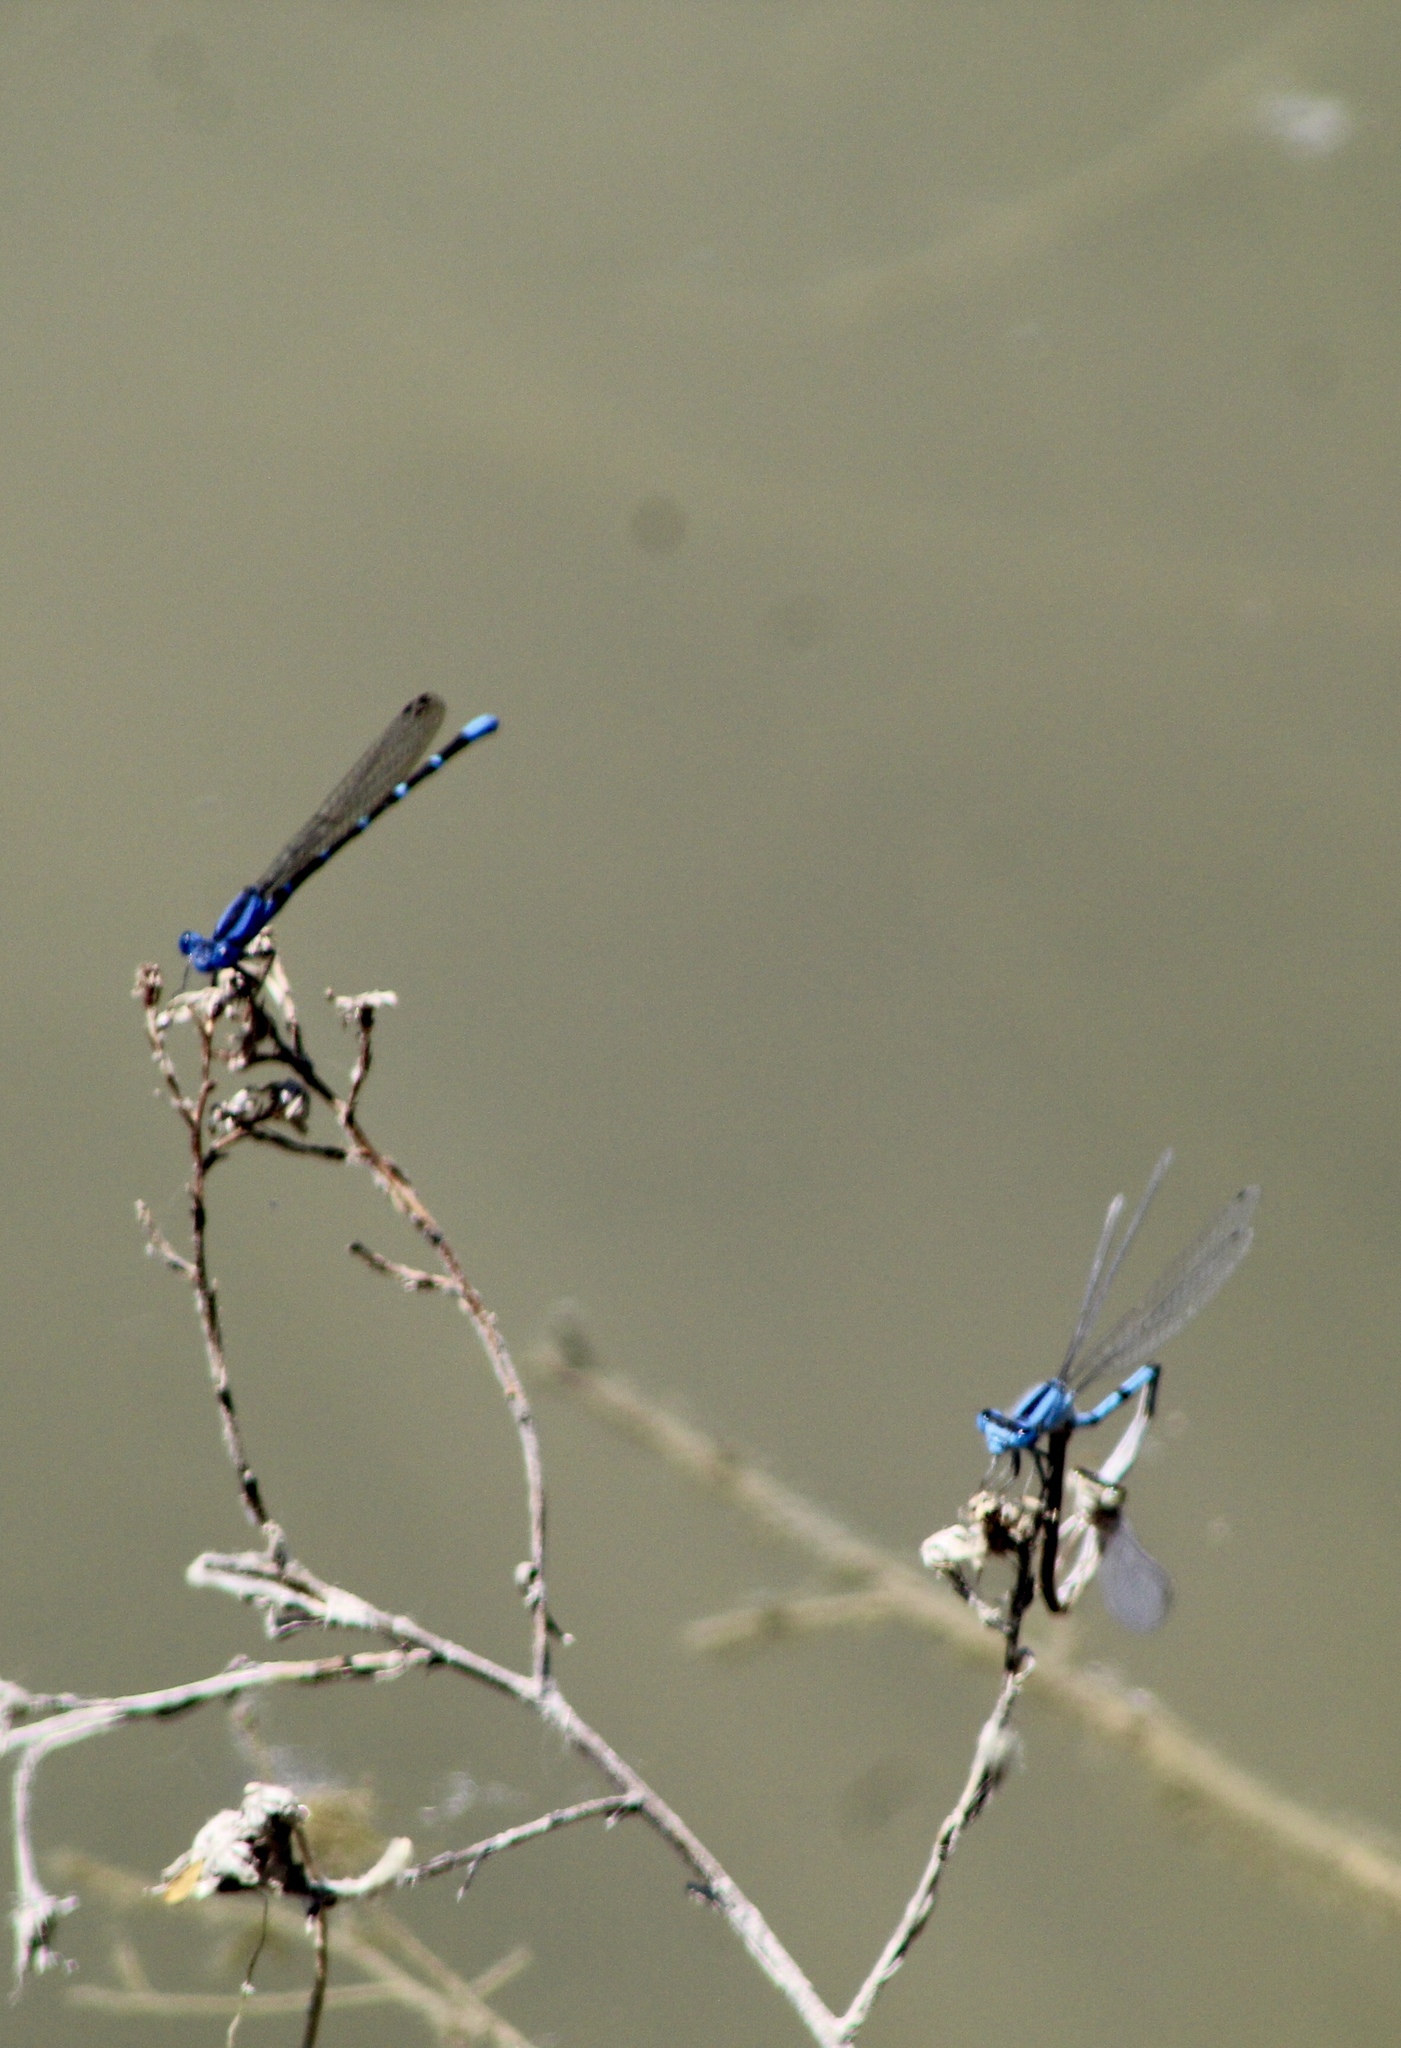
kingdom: Animalia
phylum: Arthropoda
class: Insecta
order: Odonata
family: Coenagrionidae
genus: Enallagma
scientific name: Enallagma civile
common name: Damselfly
